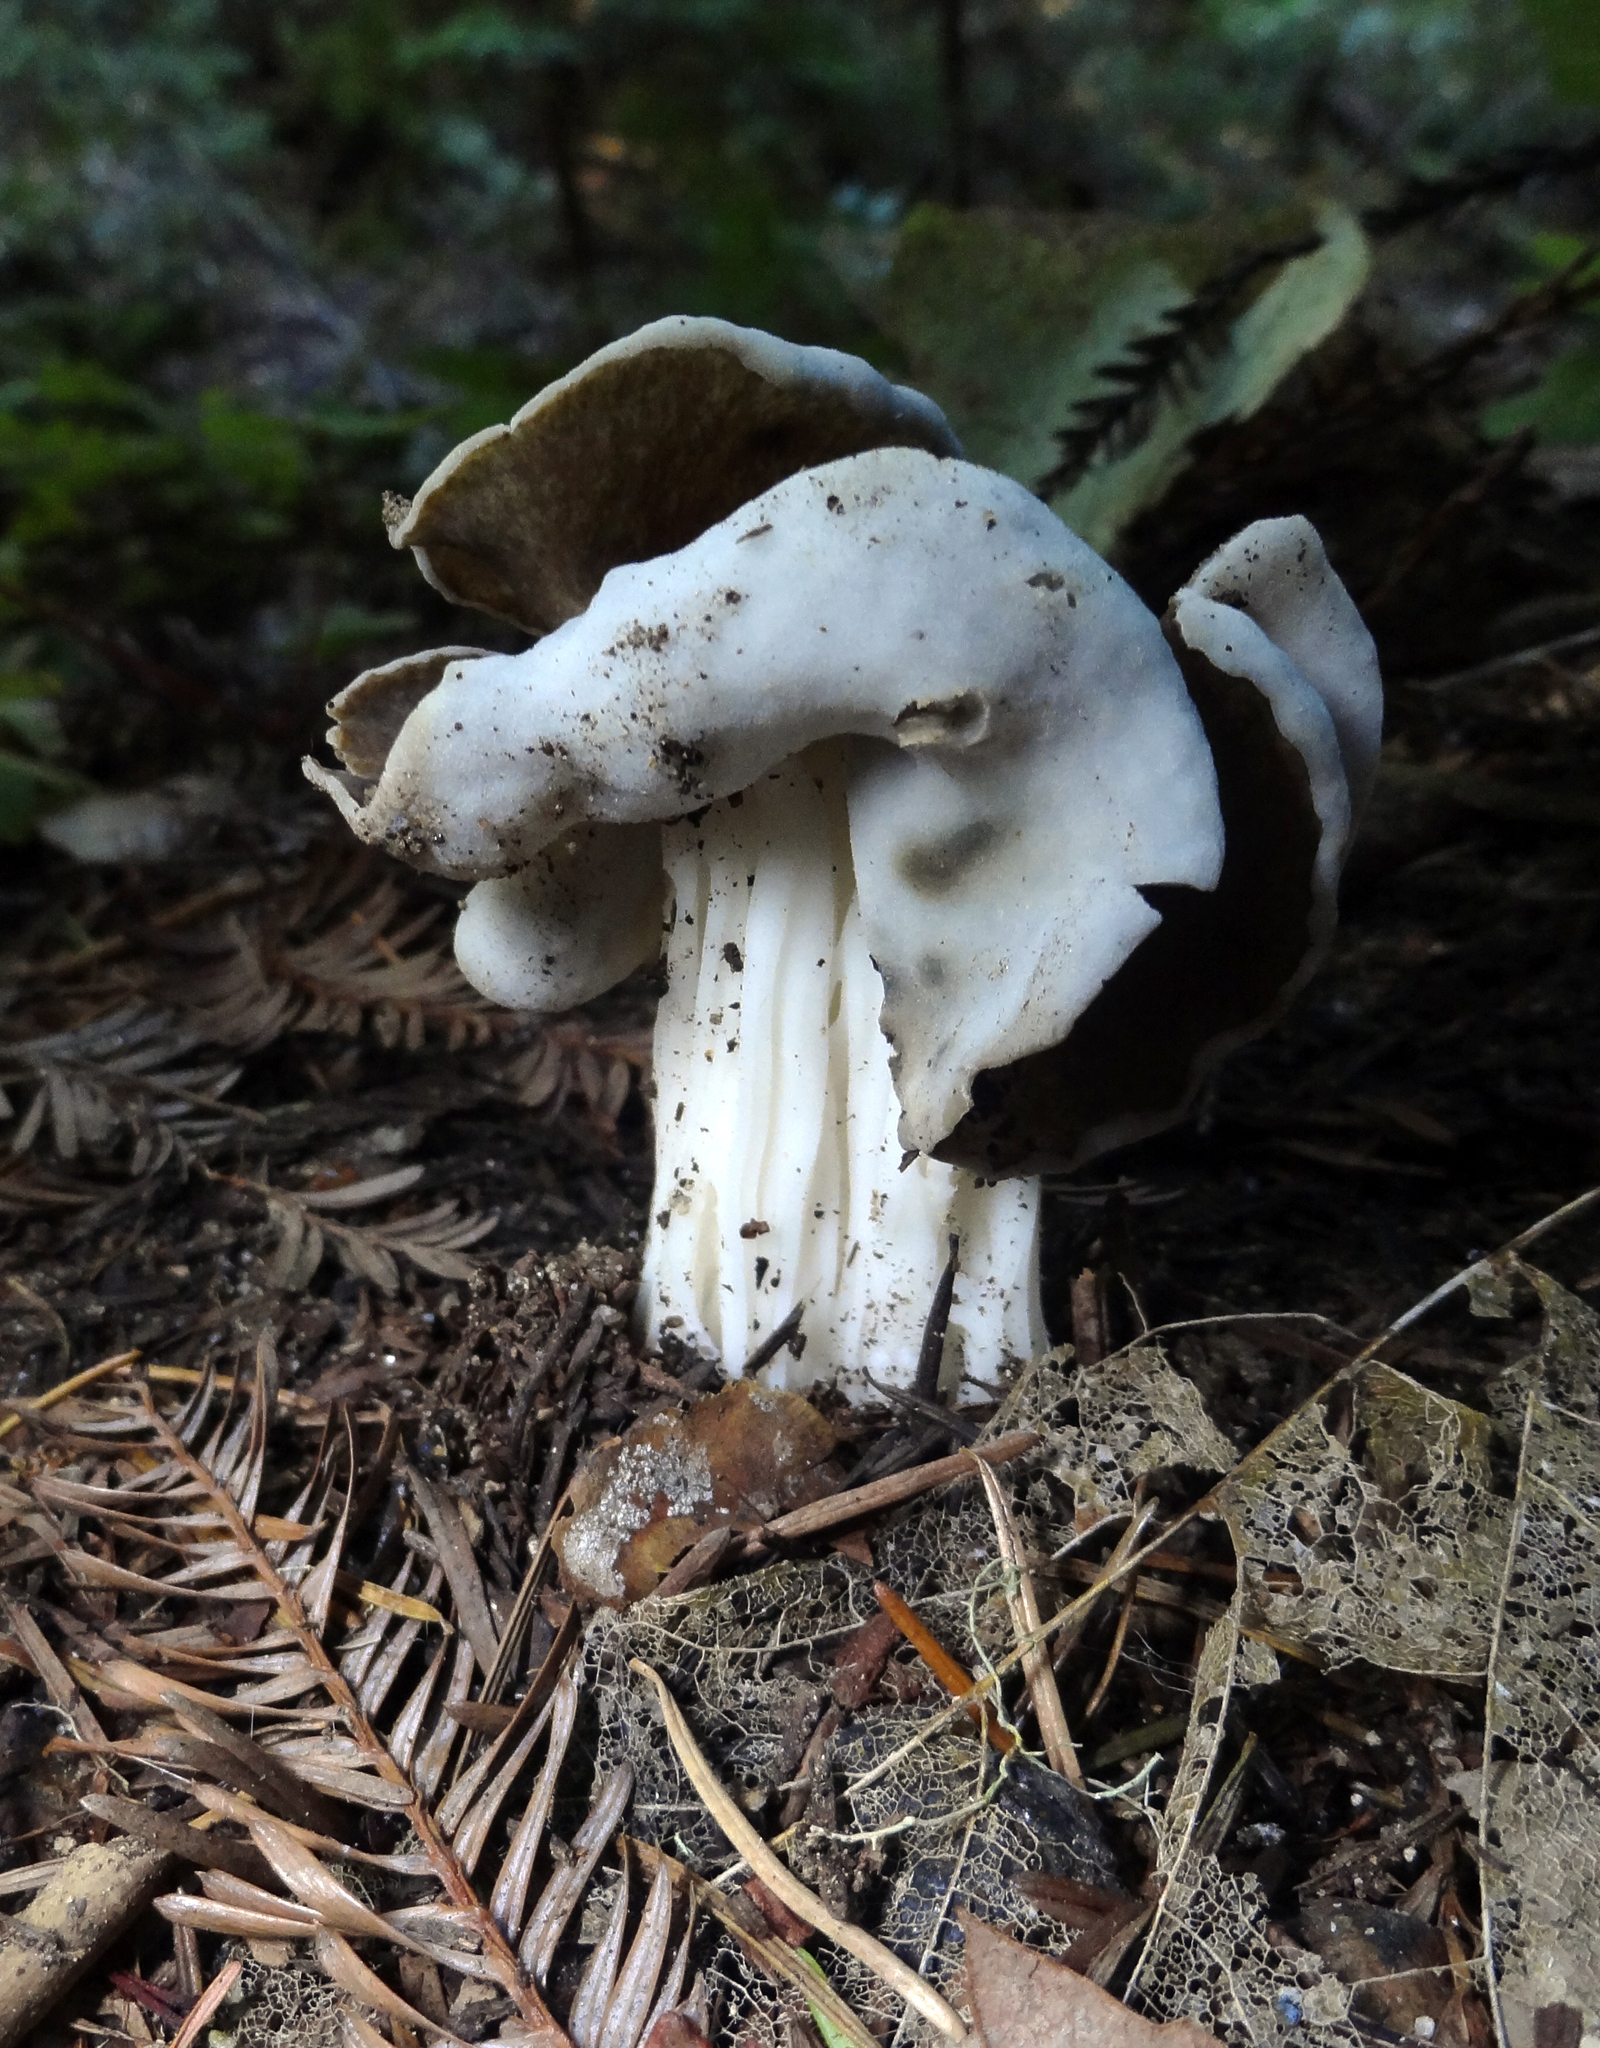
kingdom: Fungi
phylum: Ascomycota
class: Pezizomycetes
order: Pezizales
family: Helvellaceae
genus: Helvella
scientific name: Helvella maculata
